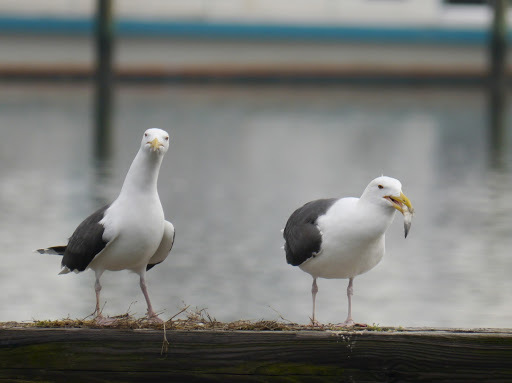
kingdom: Animalia
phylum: Chordata
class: Aves
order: Charadriiformes
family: Laridae
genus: Larus
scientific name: Larus marinus
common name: Great black-backed gull
